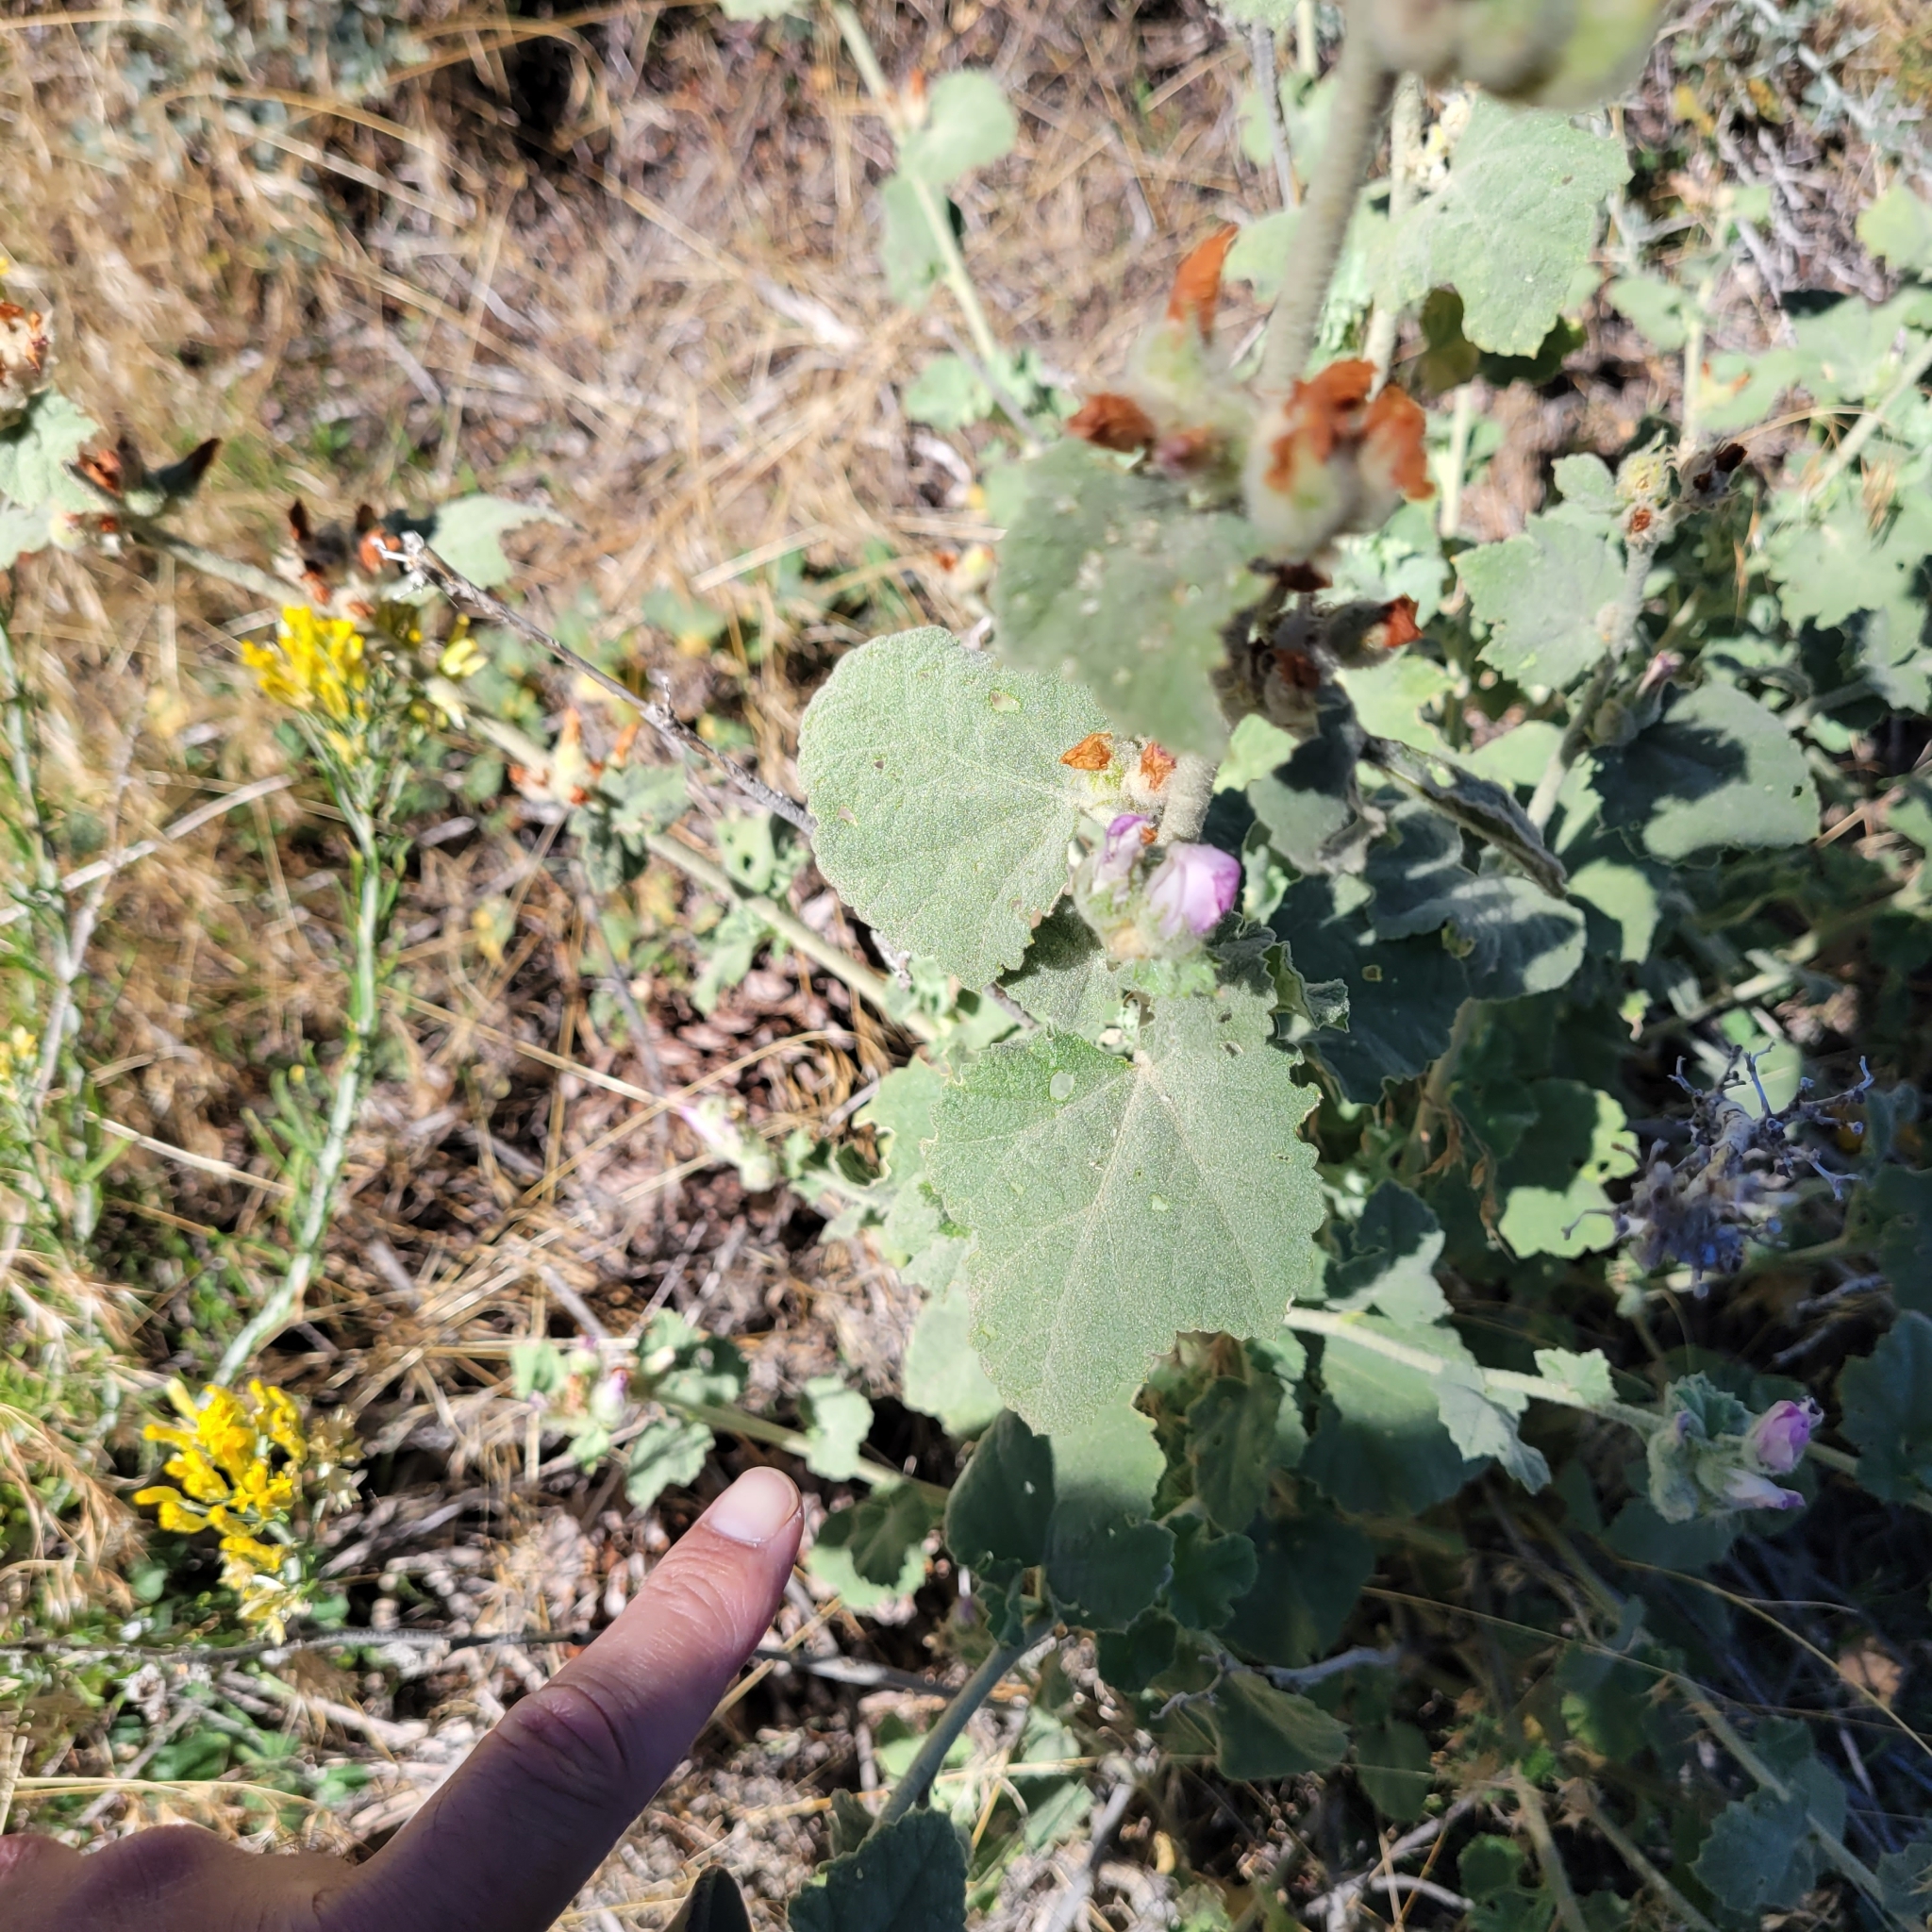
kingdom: Plantae
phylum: Tracheophyta
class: Magnoliopsida
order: Malvales
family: Malvaceae
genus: Malacothamnus
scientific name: Malacothamnus fremontii
